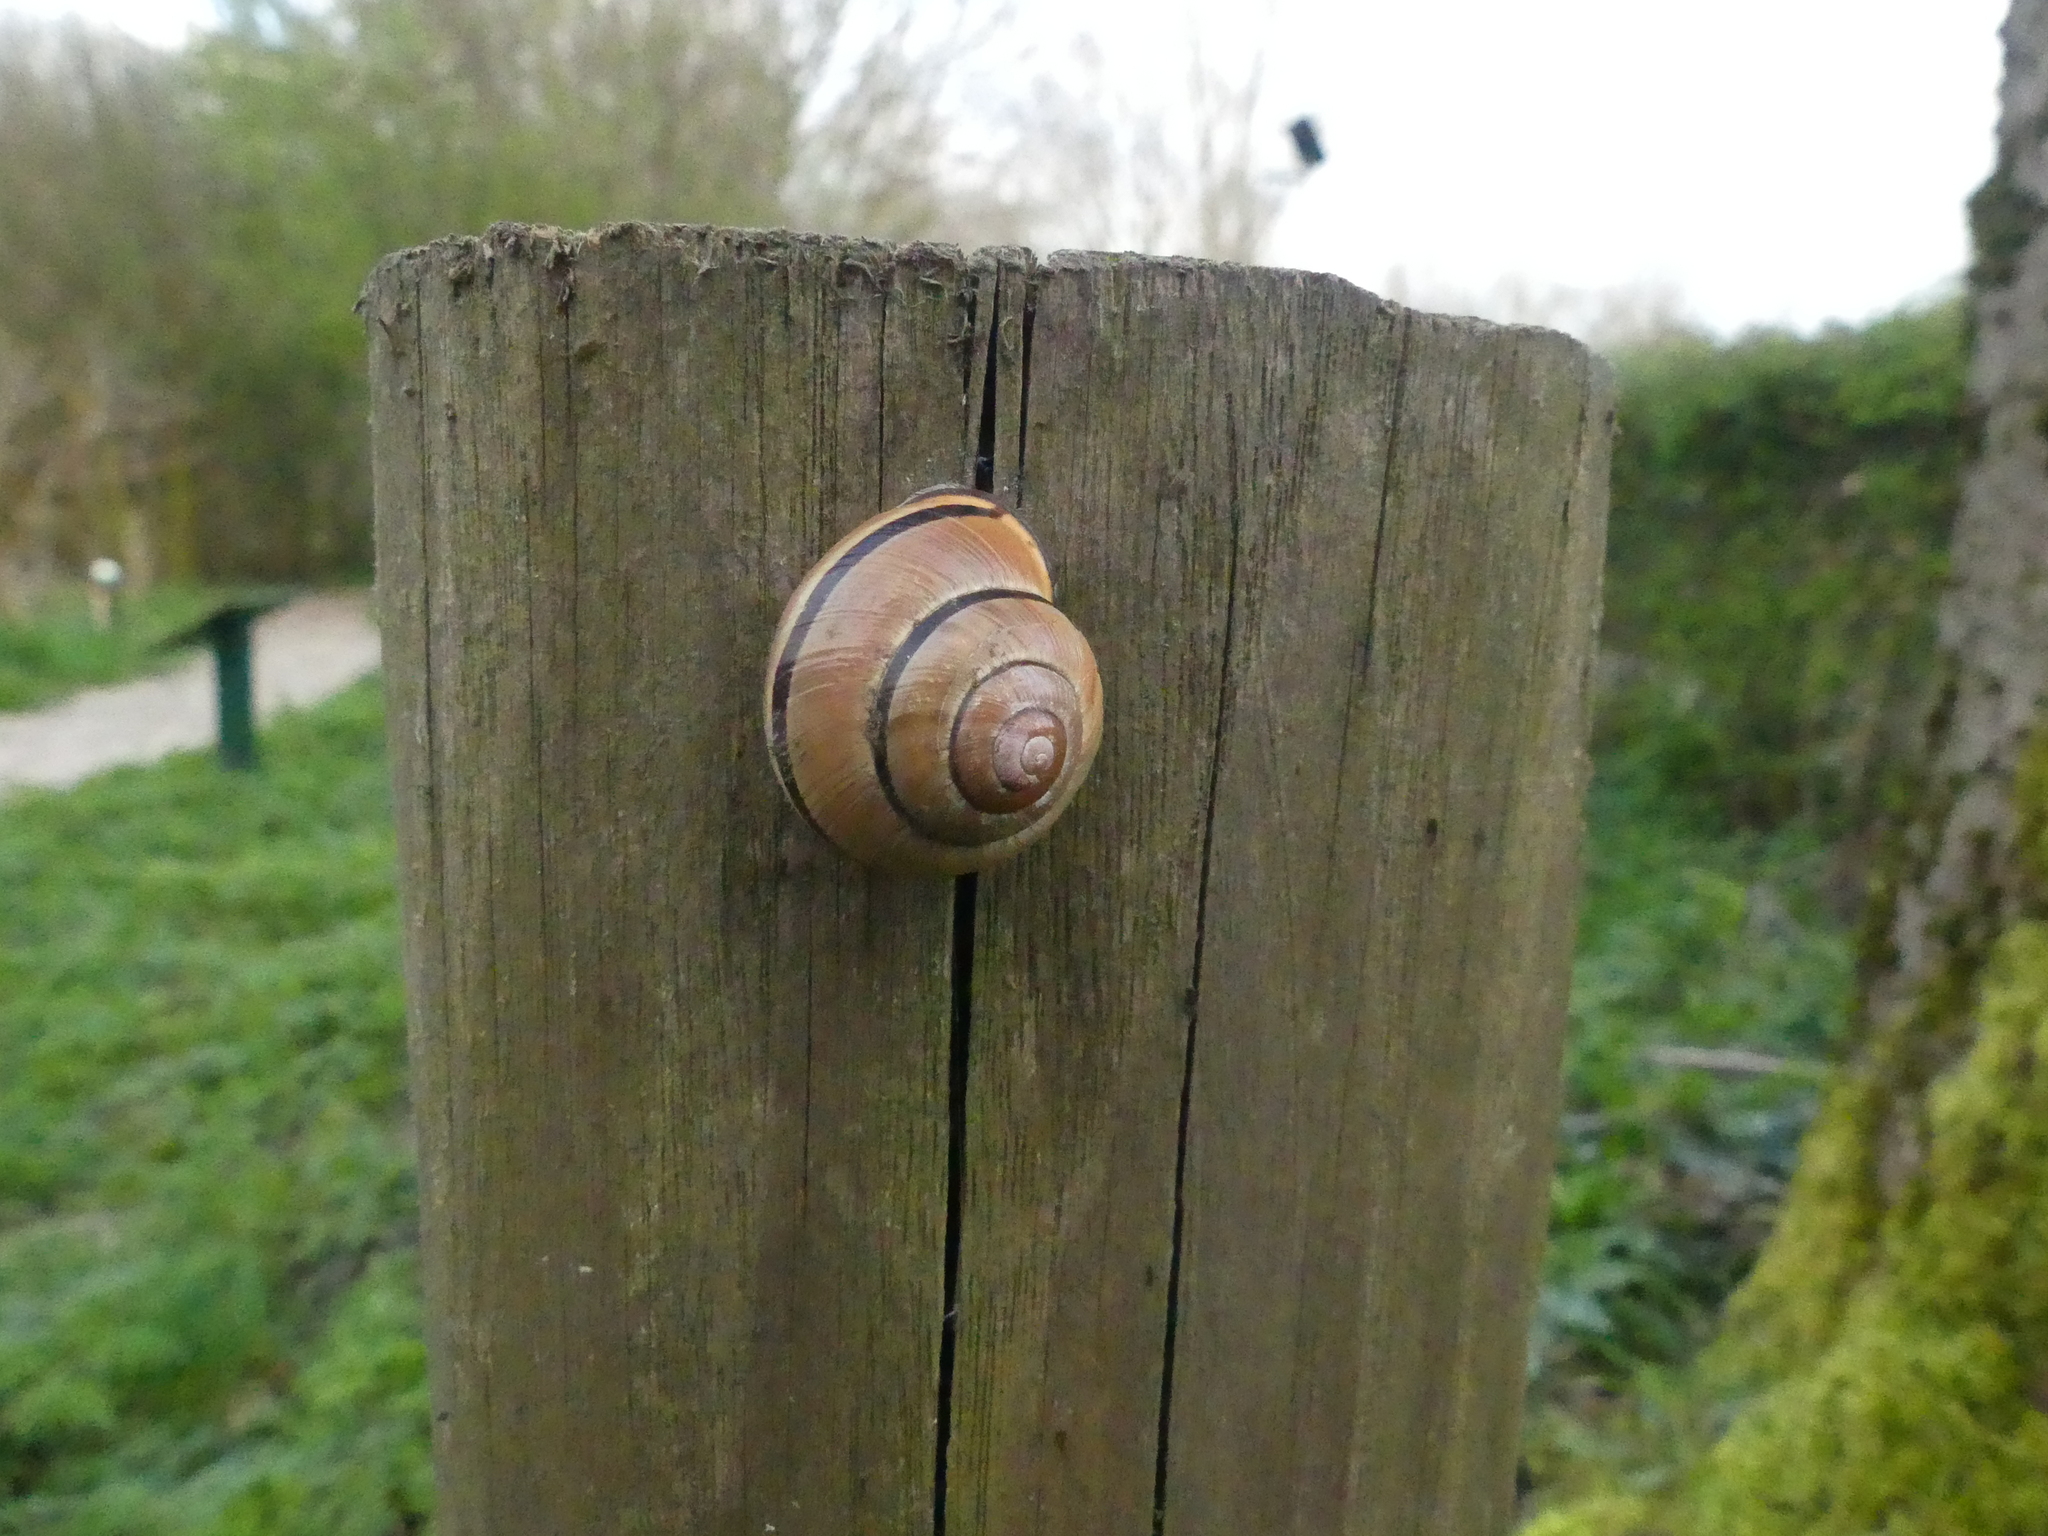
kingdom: Animalia
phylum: Mollusca
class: Gastropoda
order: Stylommatophora
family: Helicidae
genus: Cepaea
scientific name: Cepaea nemoralis
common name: Grovesnail
